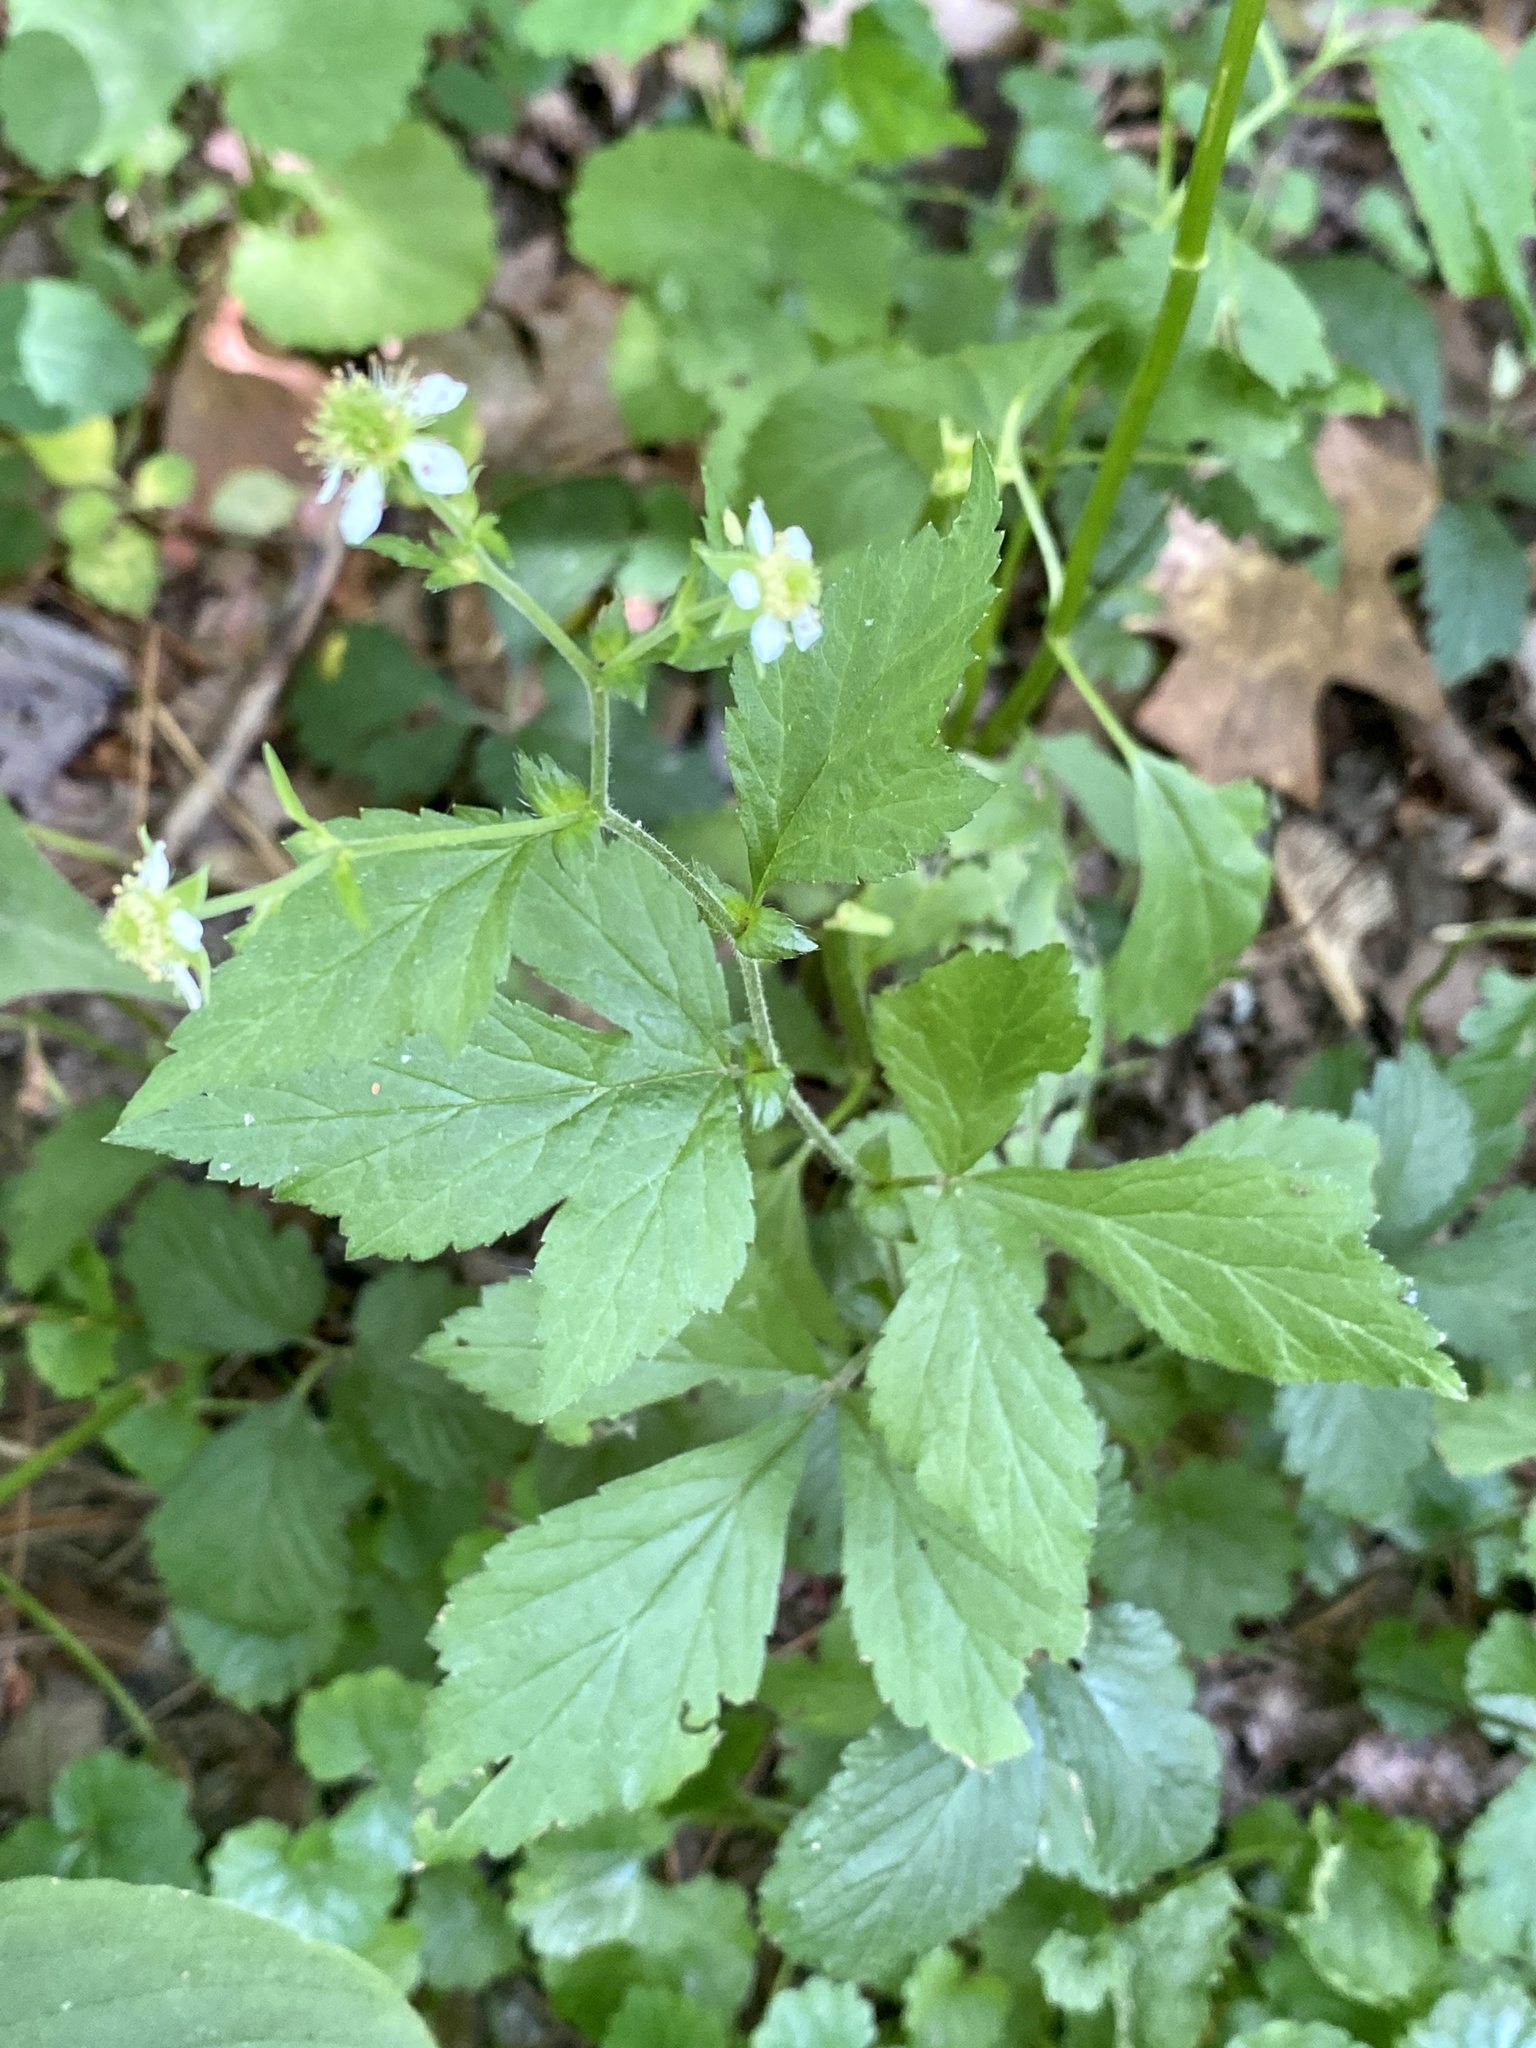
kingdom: Plantae
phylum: Tracheophyta
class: Magnoliopsida
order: Rosales
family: Rosaceae
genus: Geum
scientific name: Geum canadense
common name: White avens
